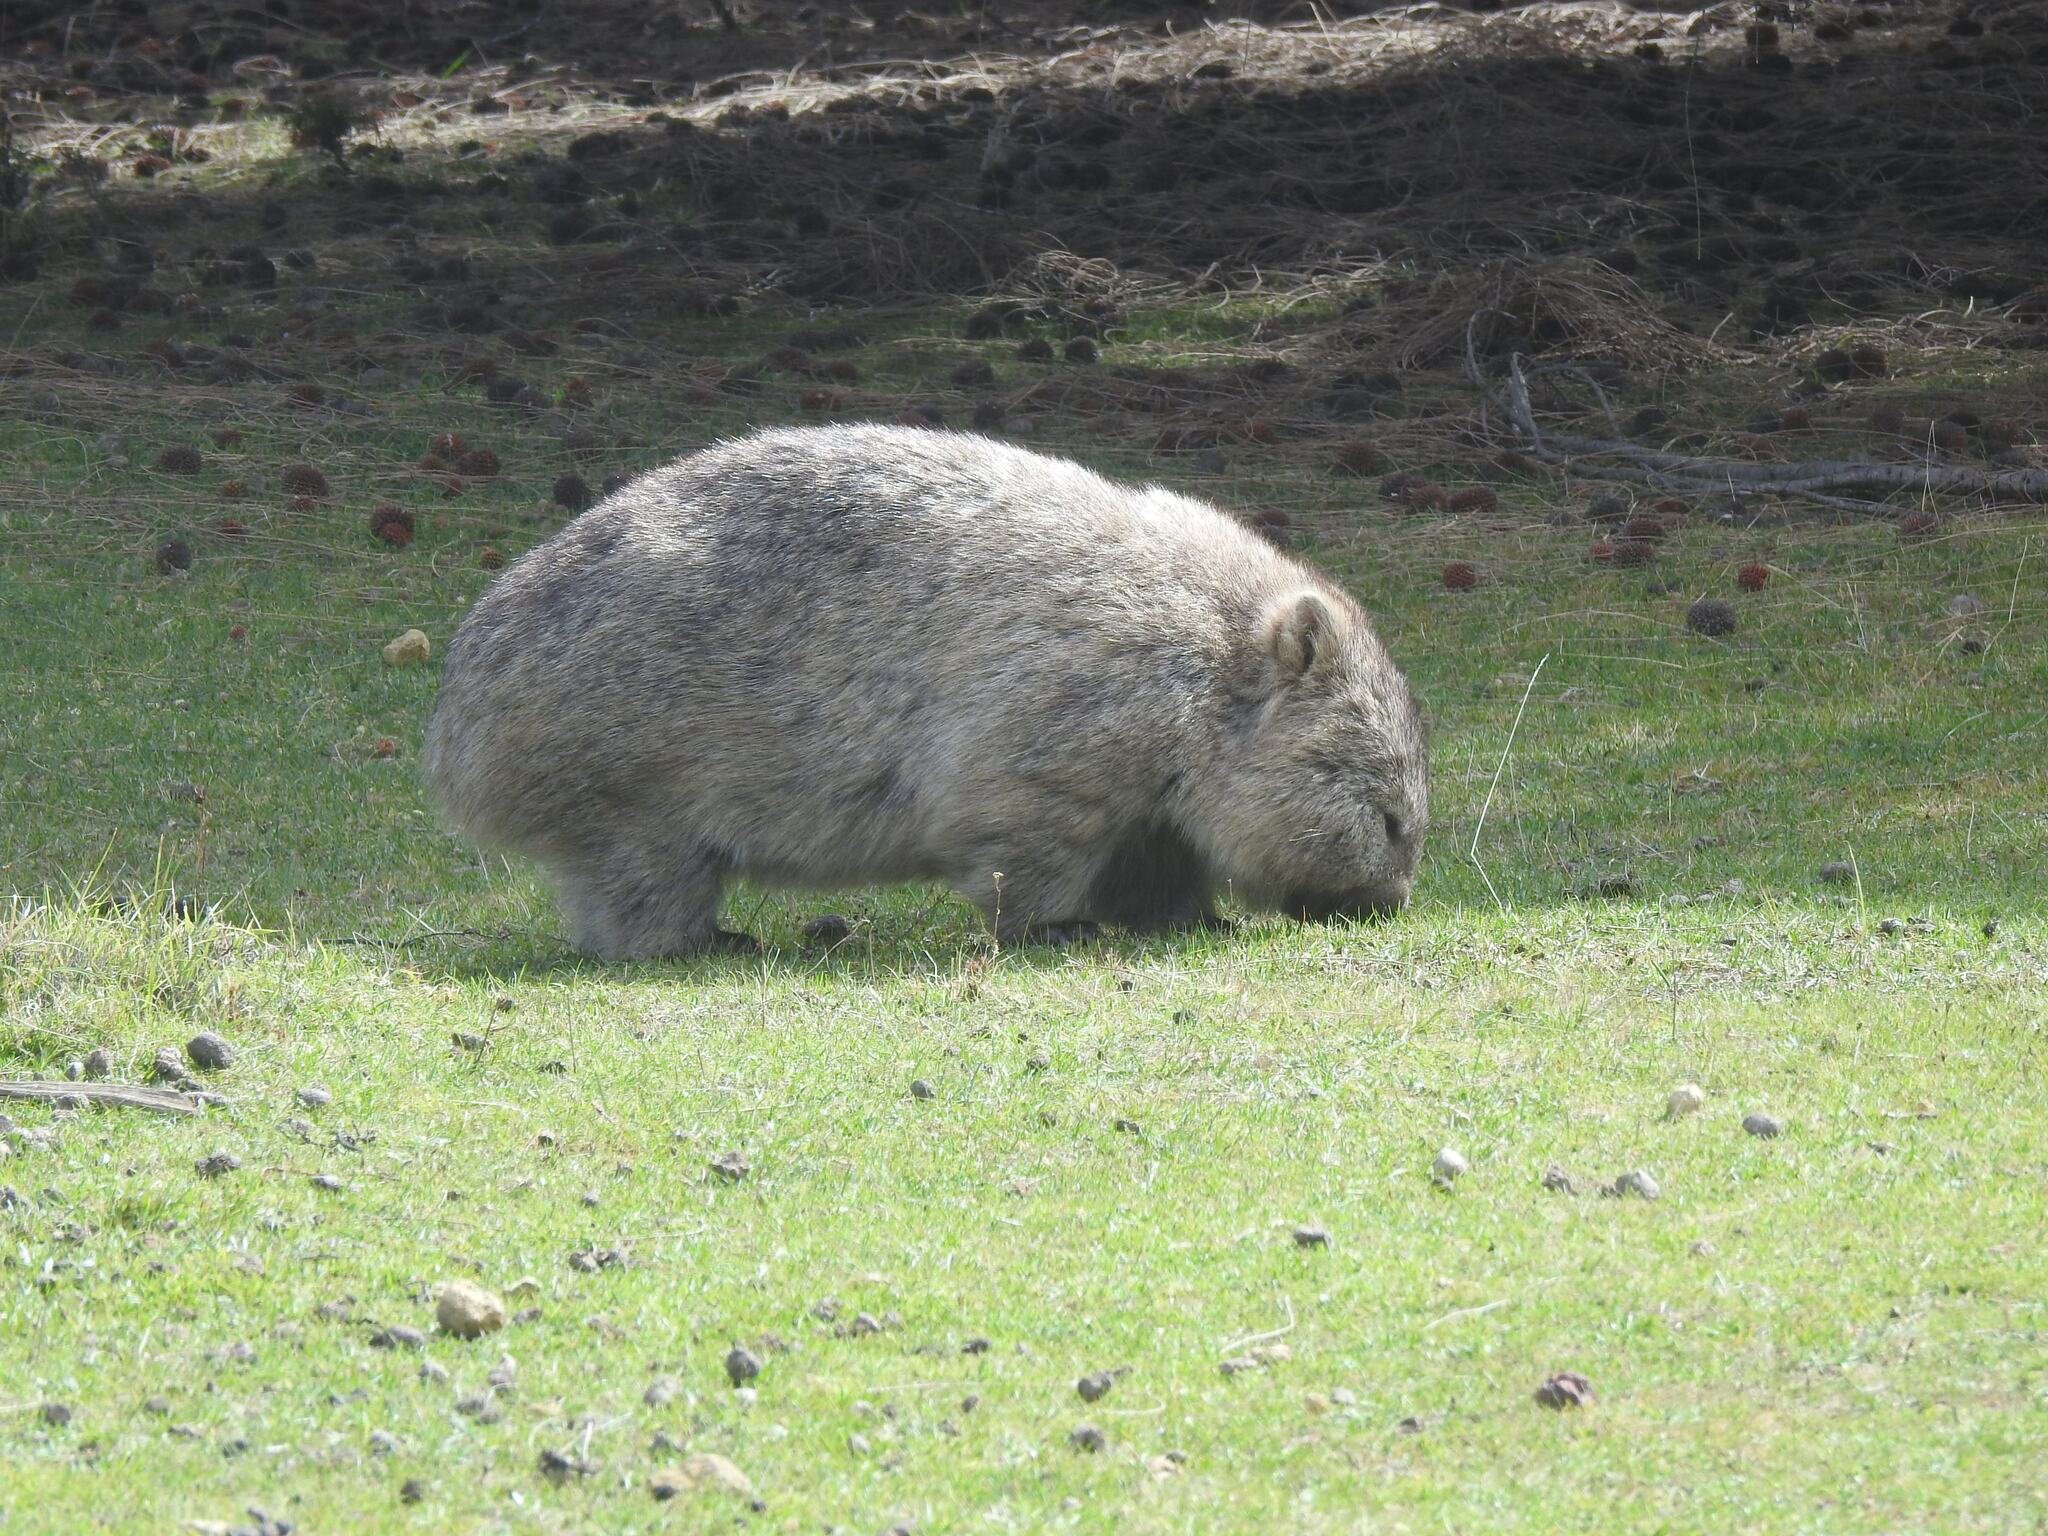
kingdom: Animalia
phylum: Chordata
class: Mammalia
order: Diprotodontia
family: Vombatidae
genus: Vombatus
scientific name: Vombatus ursinus
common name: Common wombat
